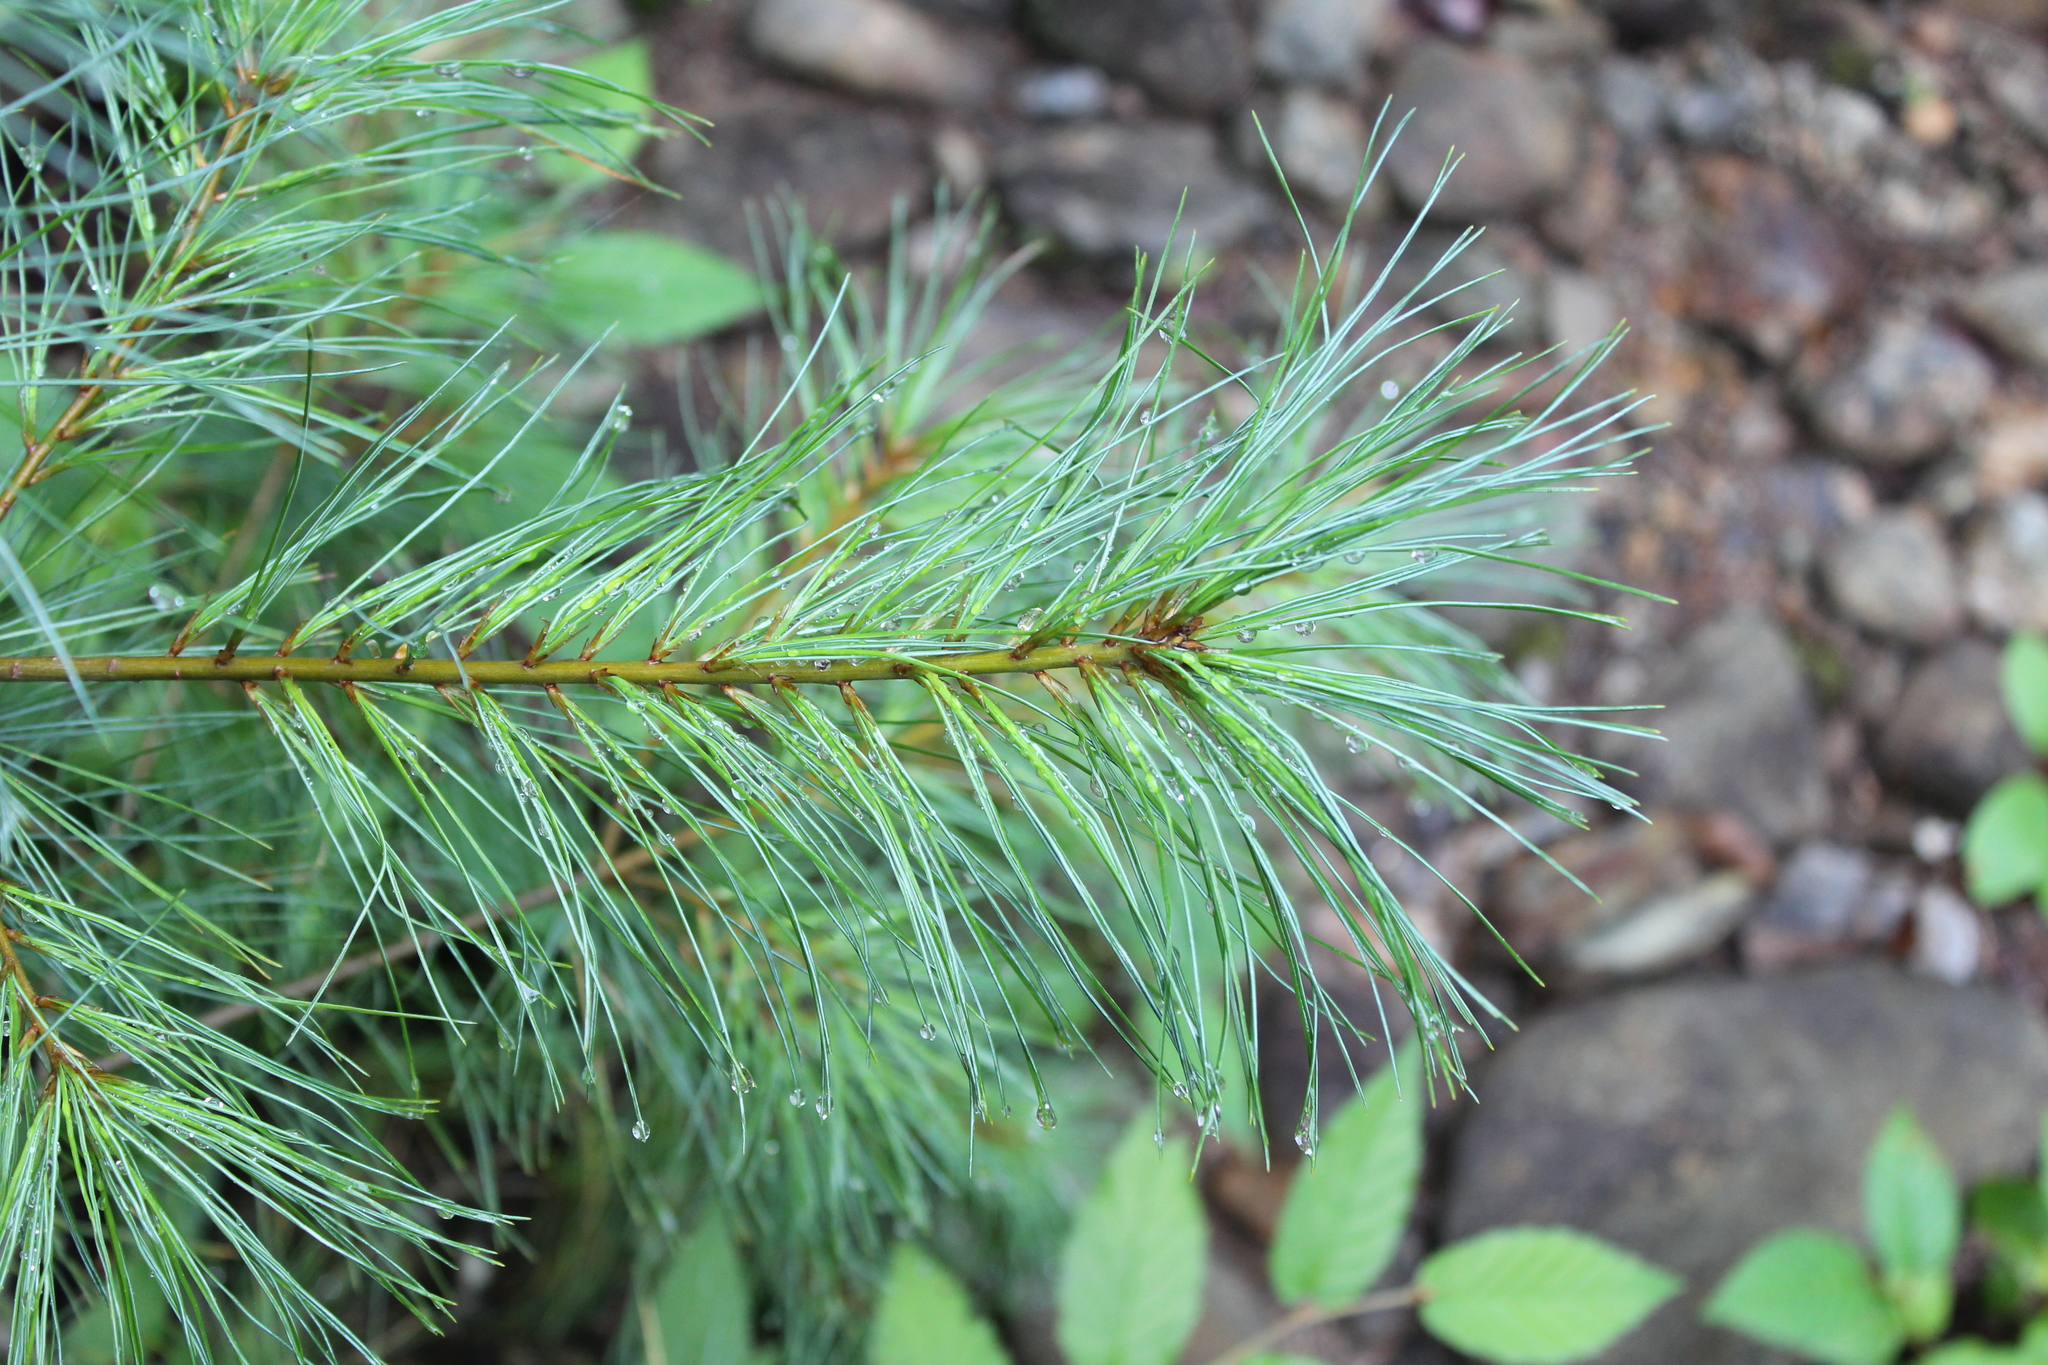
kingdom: Plantae
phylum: Tracheophyta
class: Pinopsida
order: Pinales
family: Pinaceae
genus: Pinus
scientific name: Pinus strobus
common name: Weymouth pine
